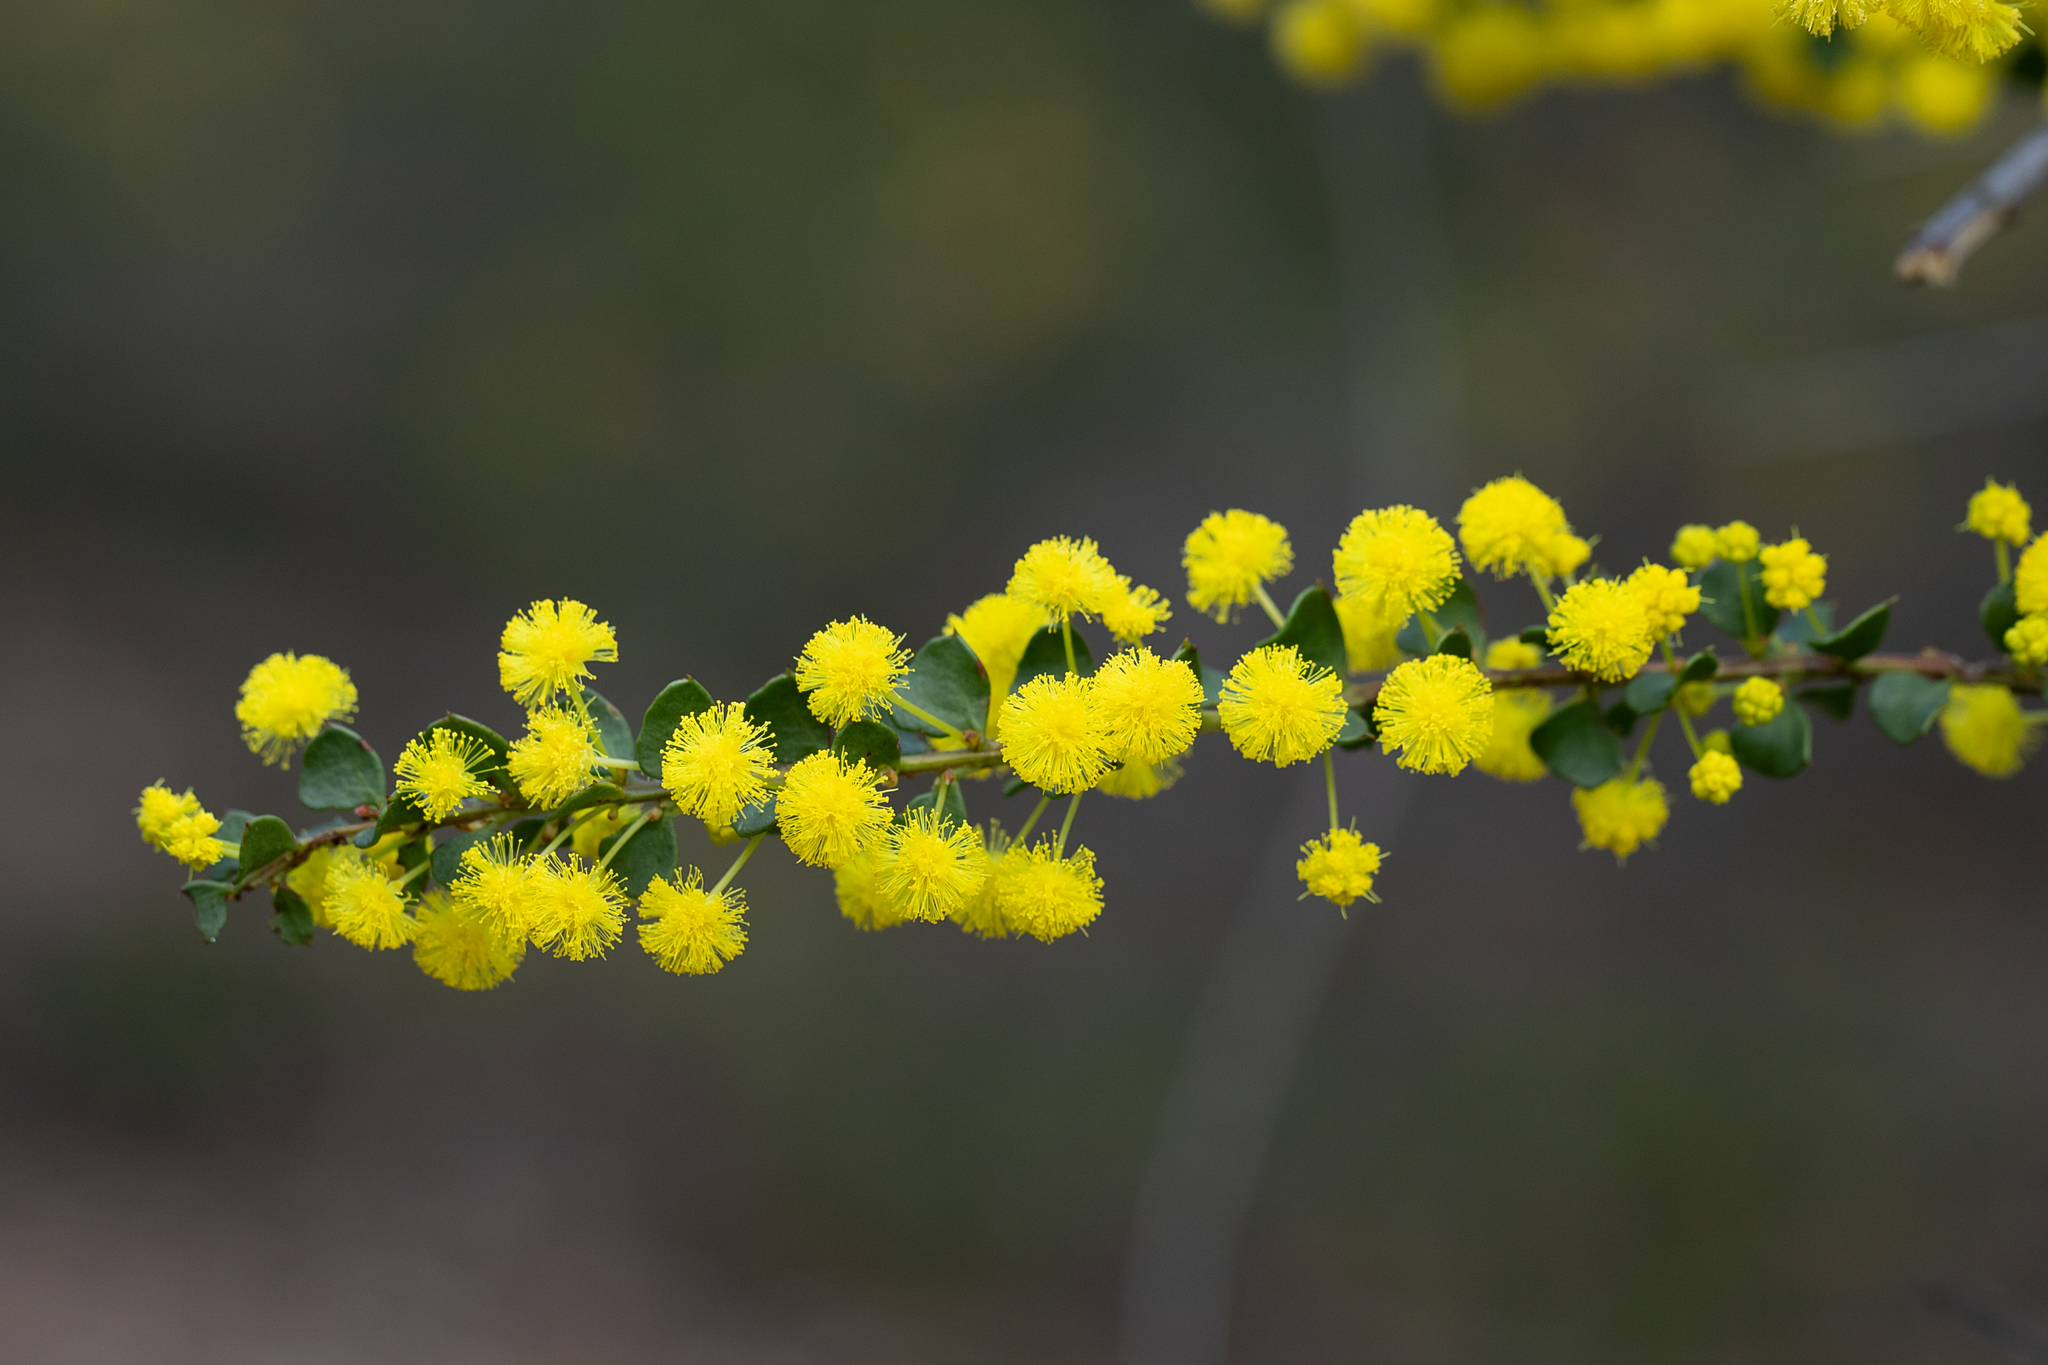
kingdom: Plantae
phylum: Tracheophyta
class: Magnoliopsida
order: Fabales
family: Fabaceae
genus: Acacia
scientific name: Acacia acinacea
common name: Gold-dust acacia
